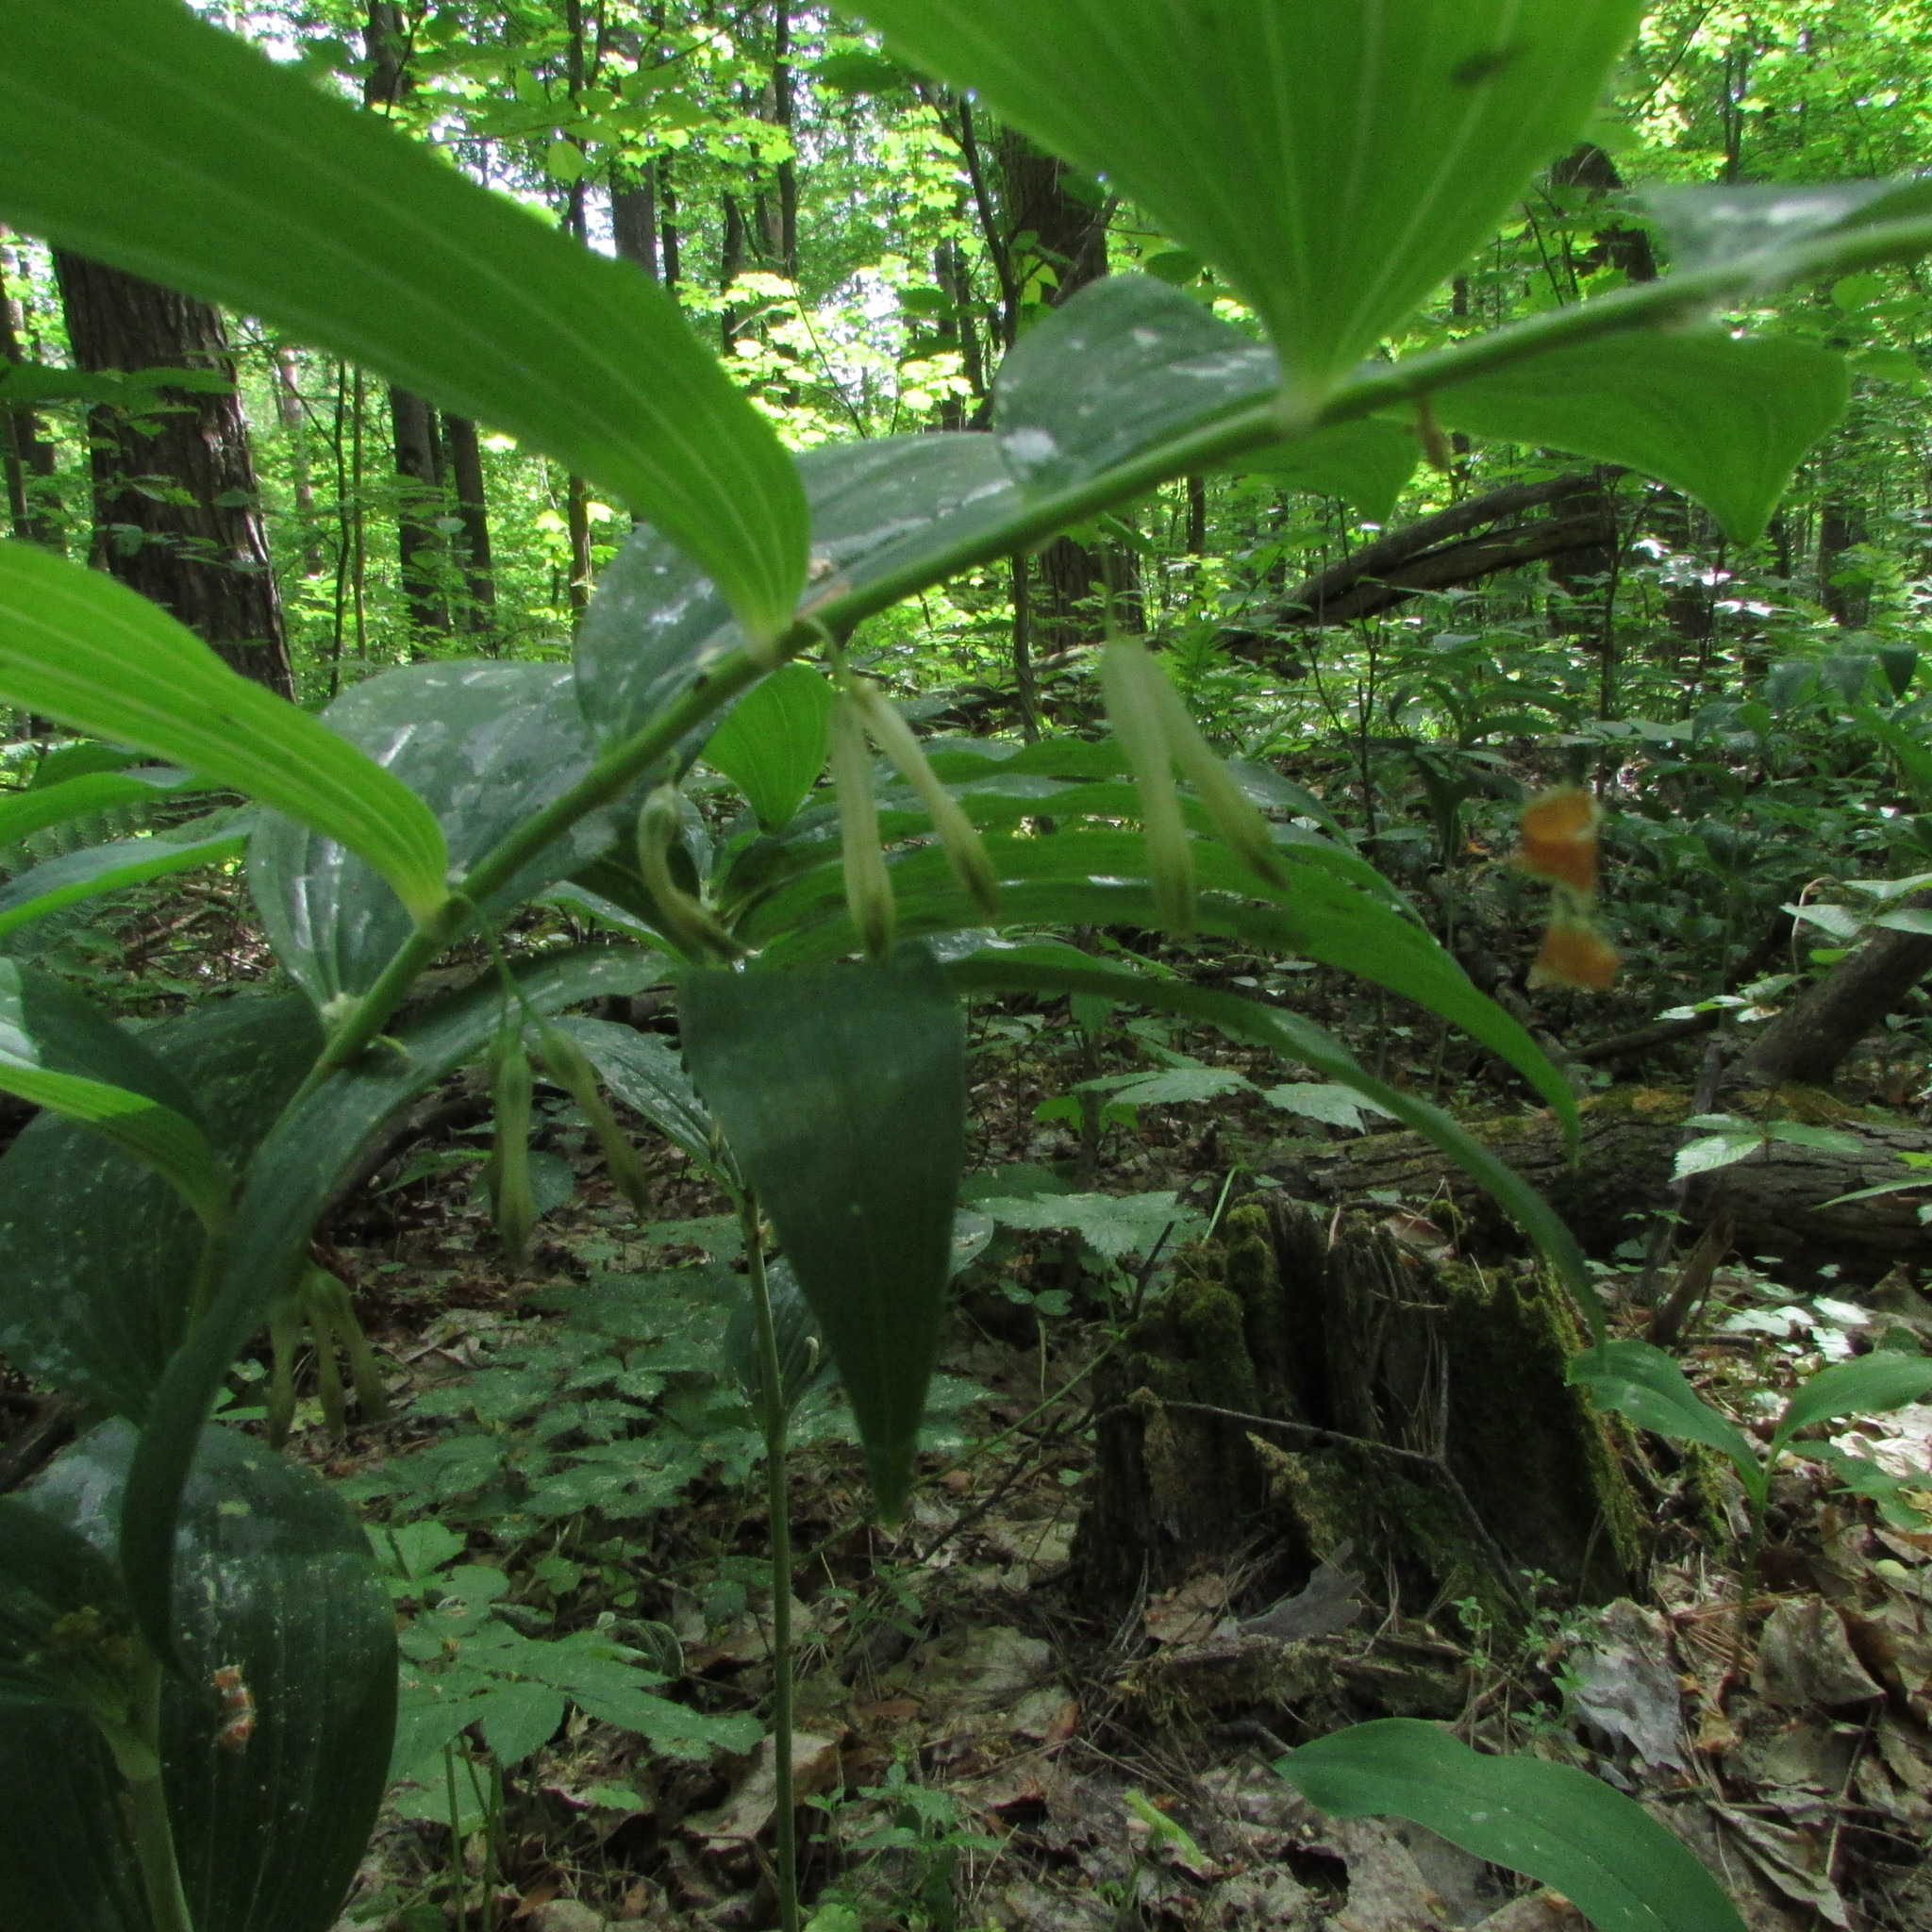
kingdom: Plantae
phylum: Tracheophyta
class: Liliopsida
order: Asparagales
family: Asparagaceae
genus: Polygonatum
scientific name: Polygonatum multiflorum
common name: Solomon's-seal
